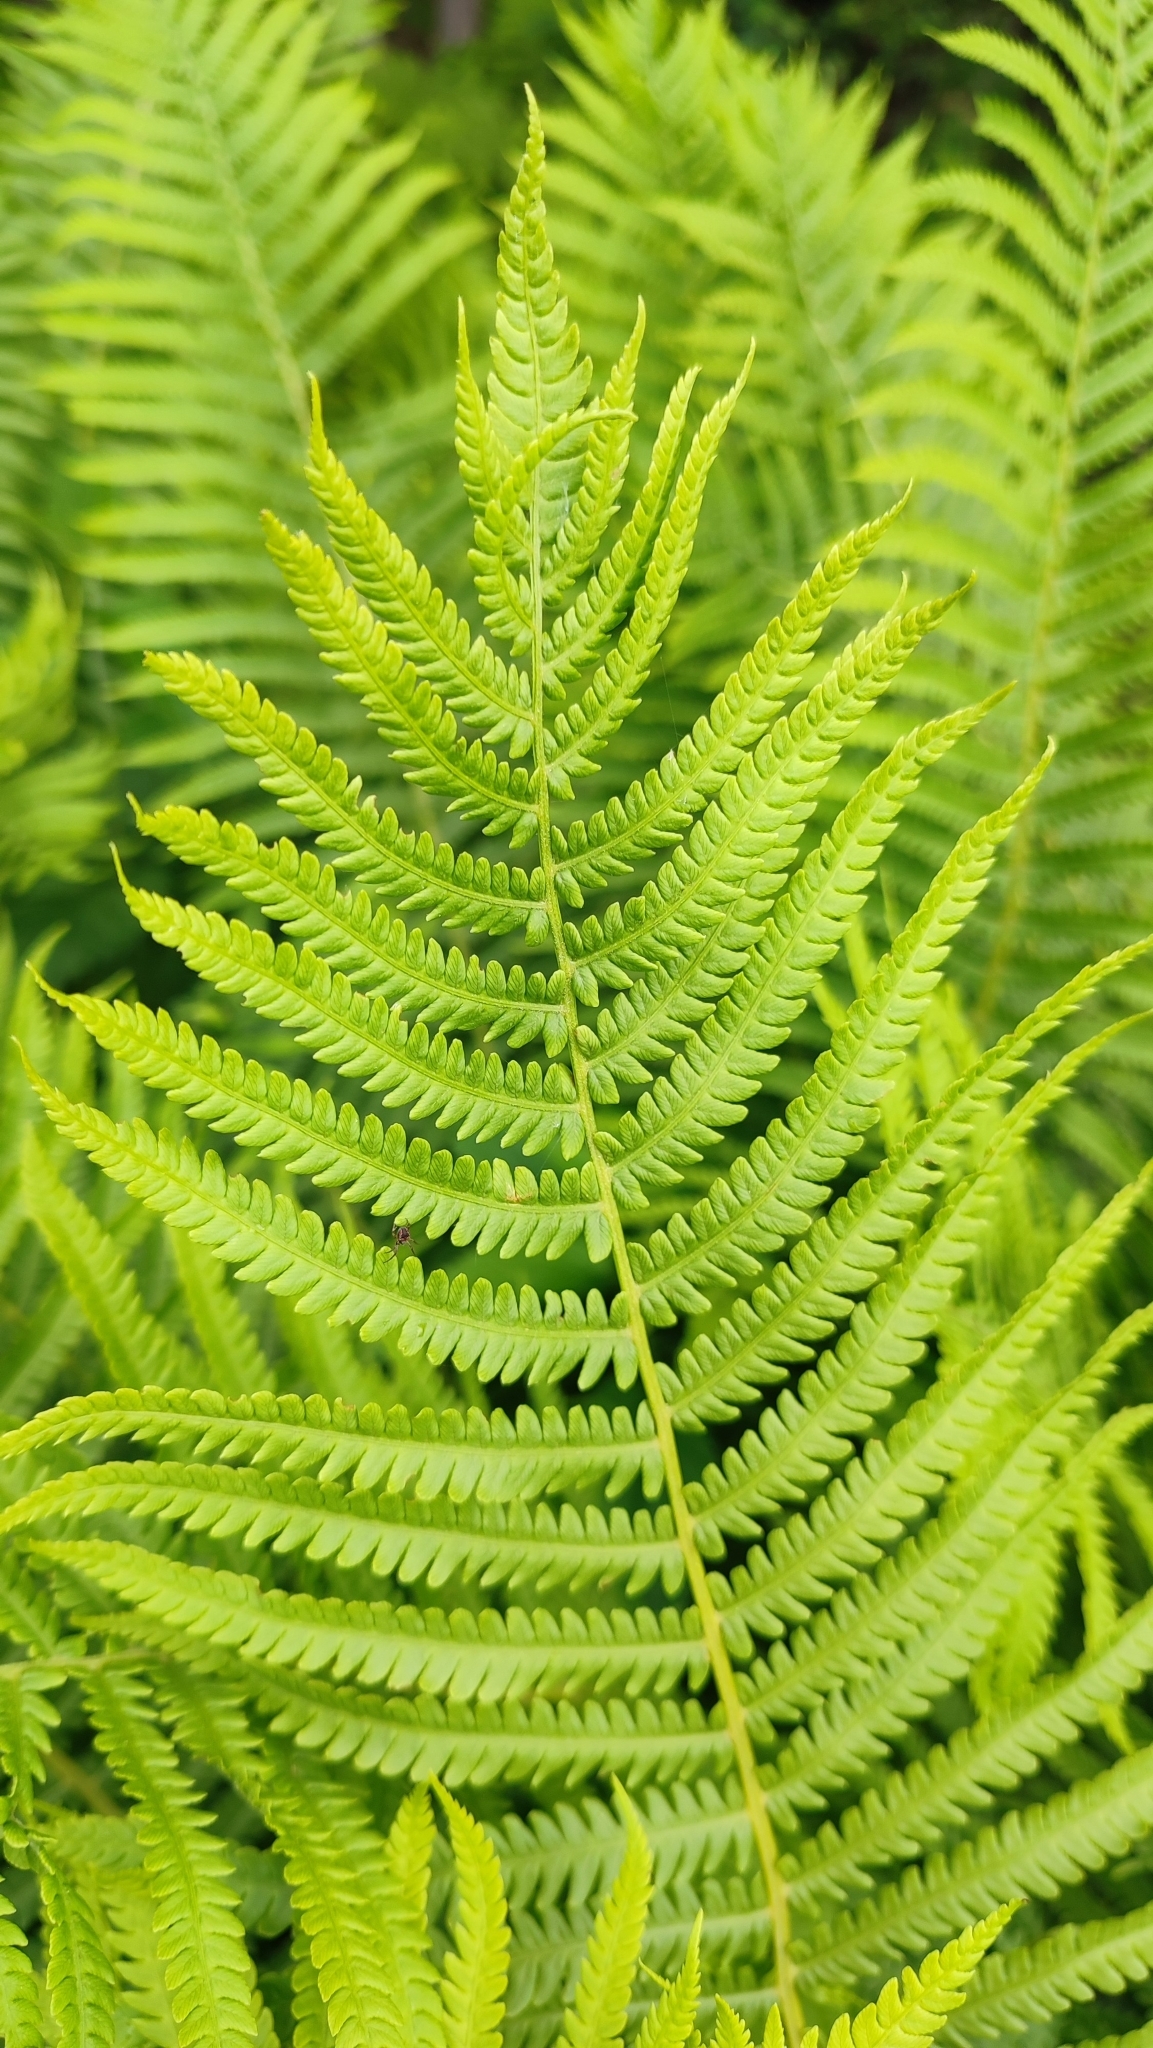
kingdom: Plantae
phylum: Tracheophyta
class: Polypodiopsida
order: Polypodiales
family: Onocleaceae
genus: Matteuccia
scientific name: Matteuccia struthiopteris
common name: Ostrich fern
